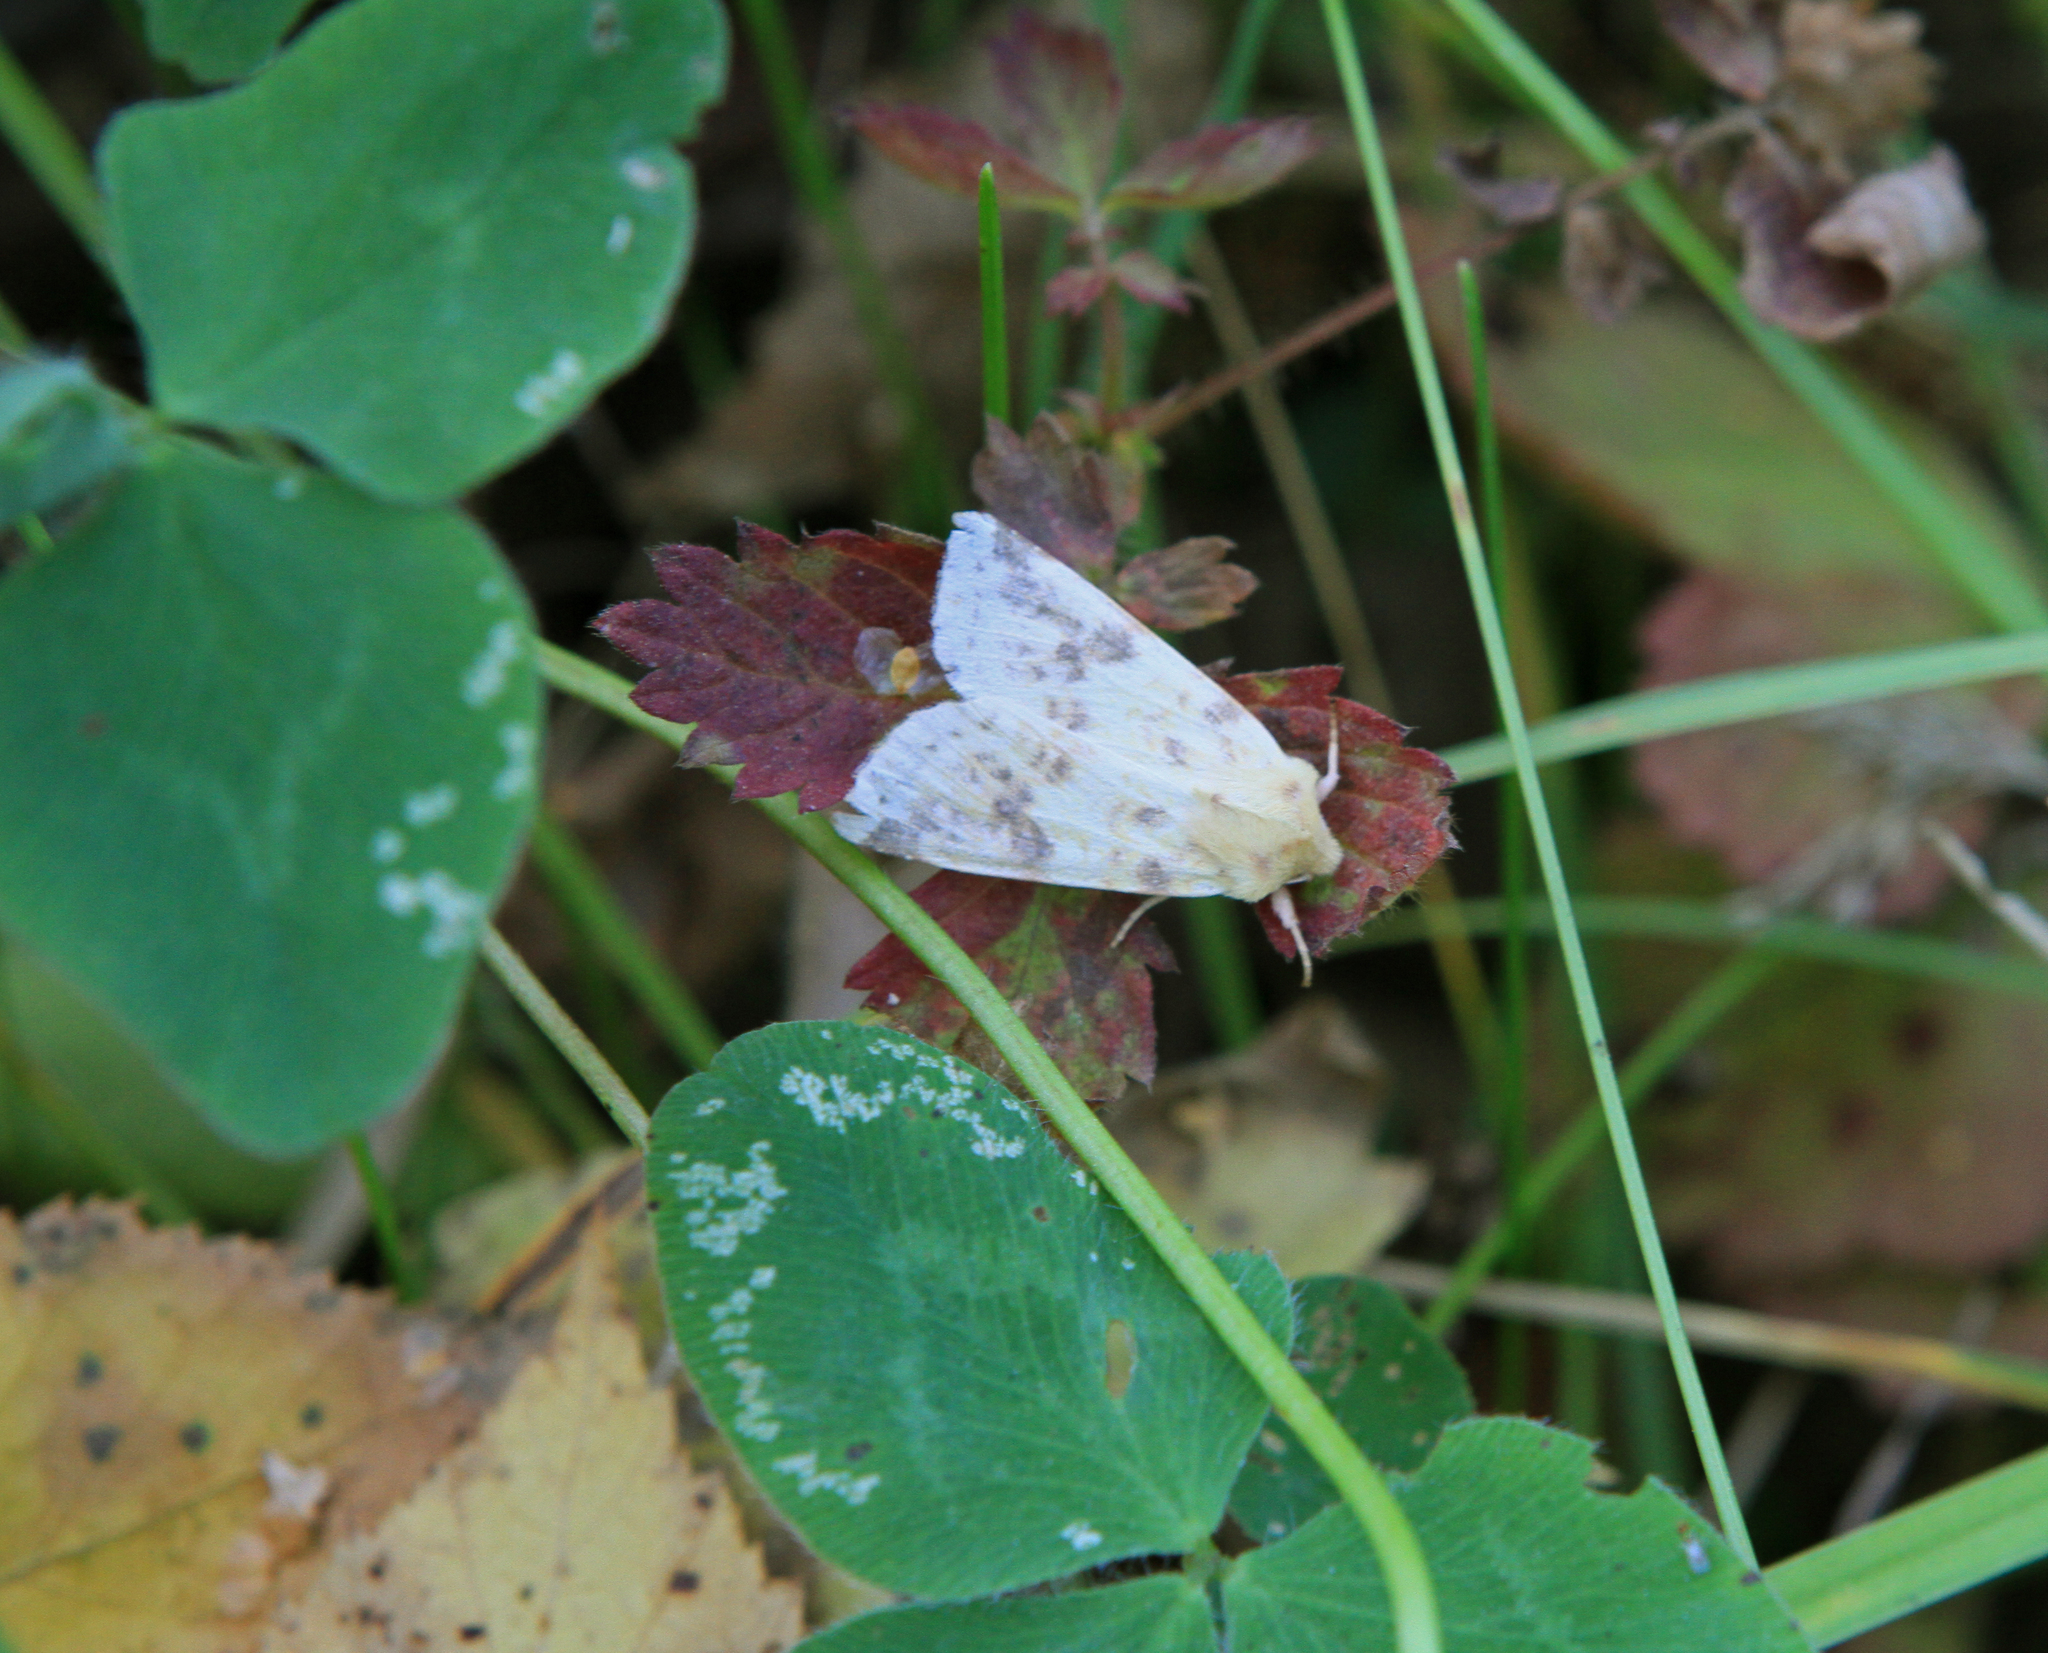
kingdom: Animalia
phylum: Arthropoda
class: Insecta
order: Lepidoptera
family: Noctuidae
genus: Xanthia
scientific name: Xanthia icteritia
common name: The sallow
